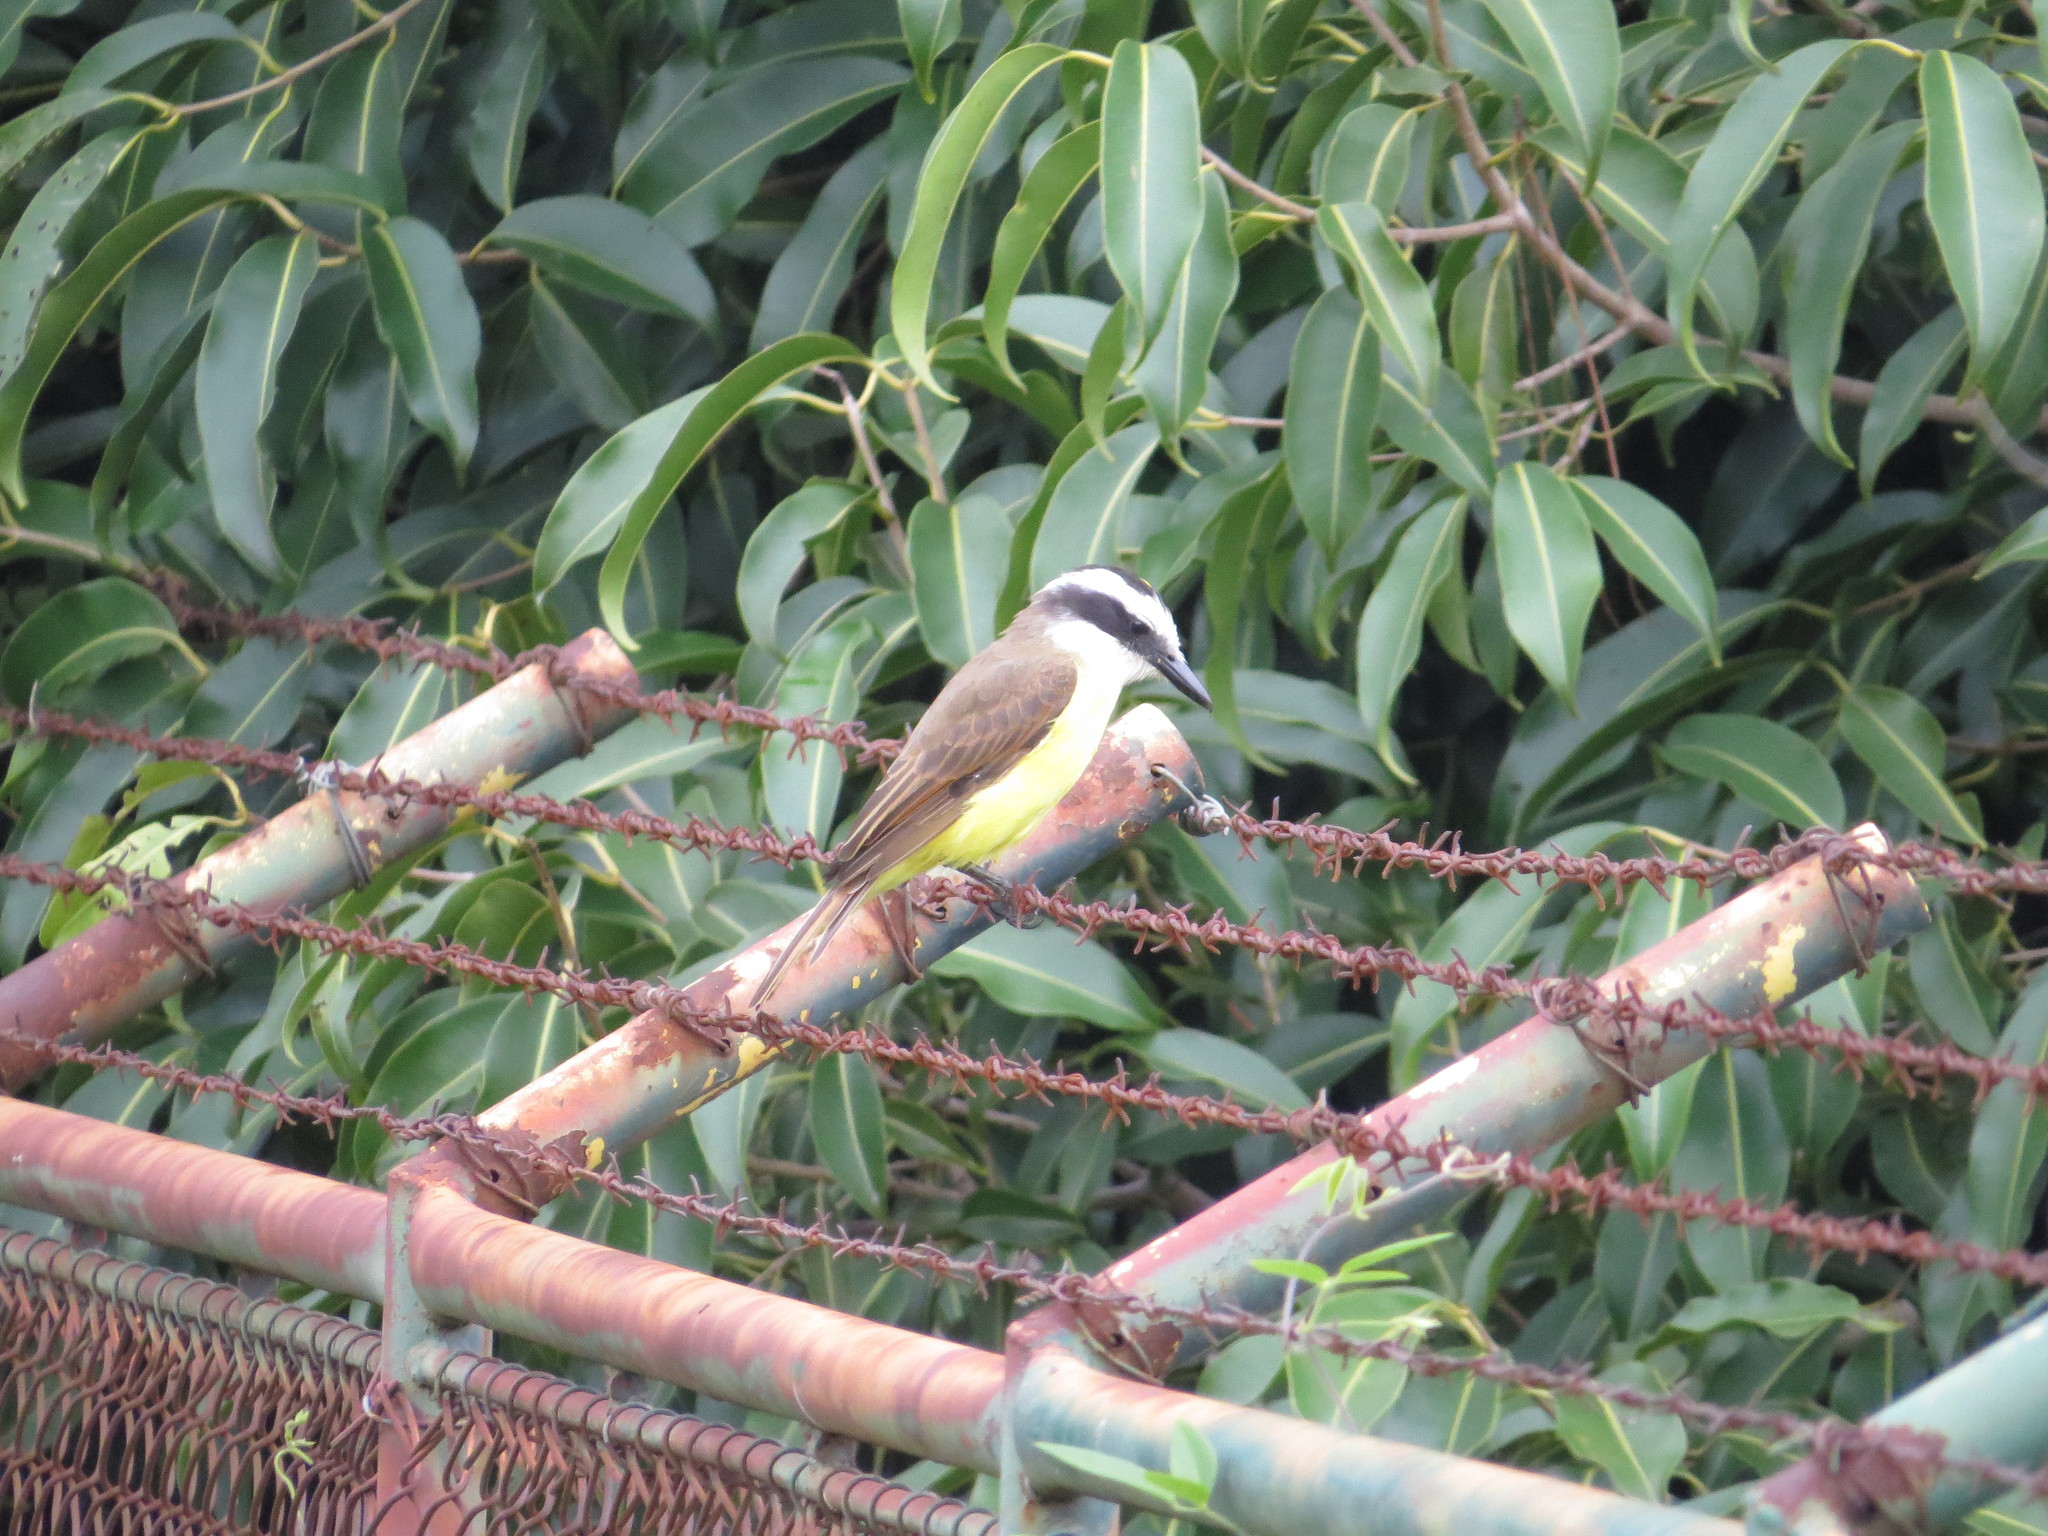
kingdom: Animalia
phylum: Chordata
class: Aves
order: Passeriformes
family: Tyrannidae
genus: Pitangus
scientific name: Pitangus sulphuratus
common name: Great kiskadee
